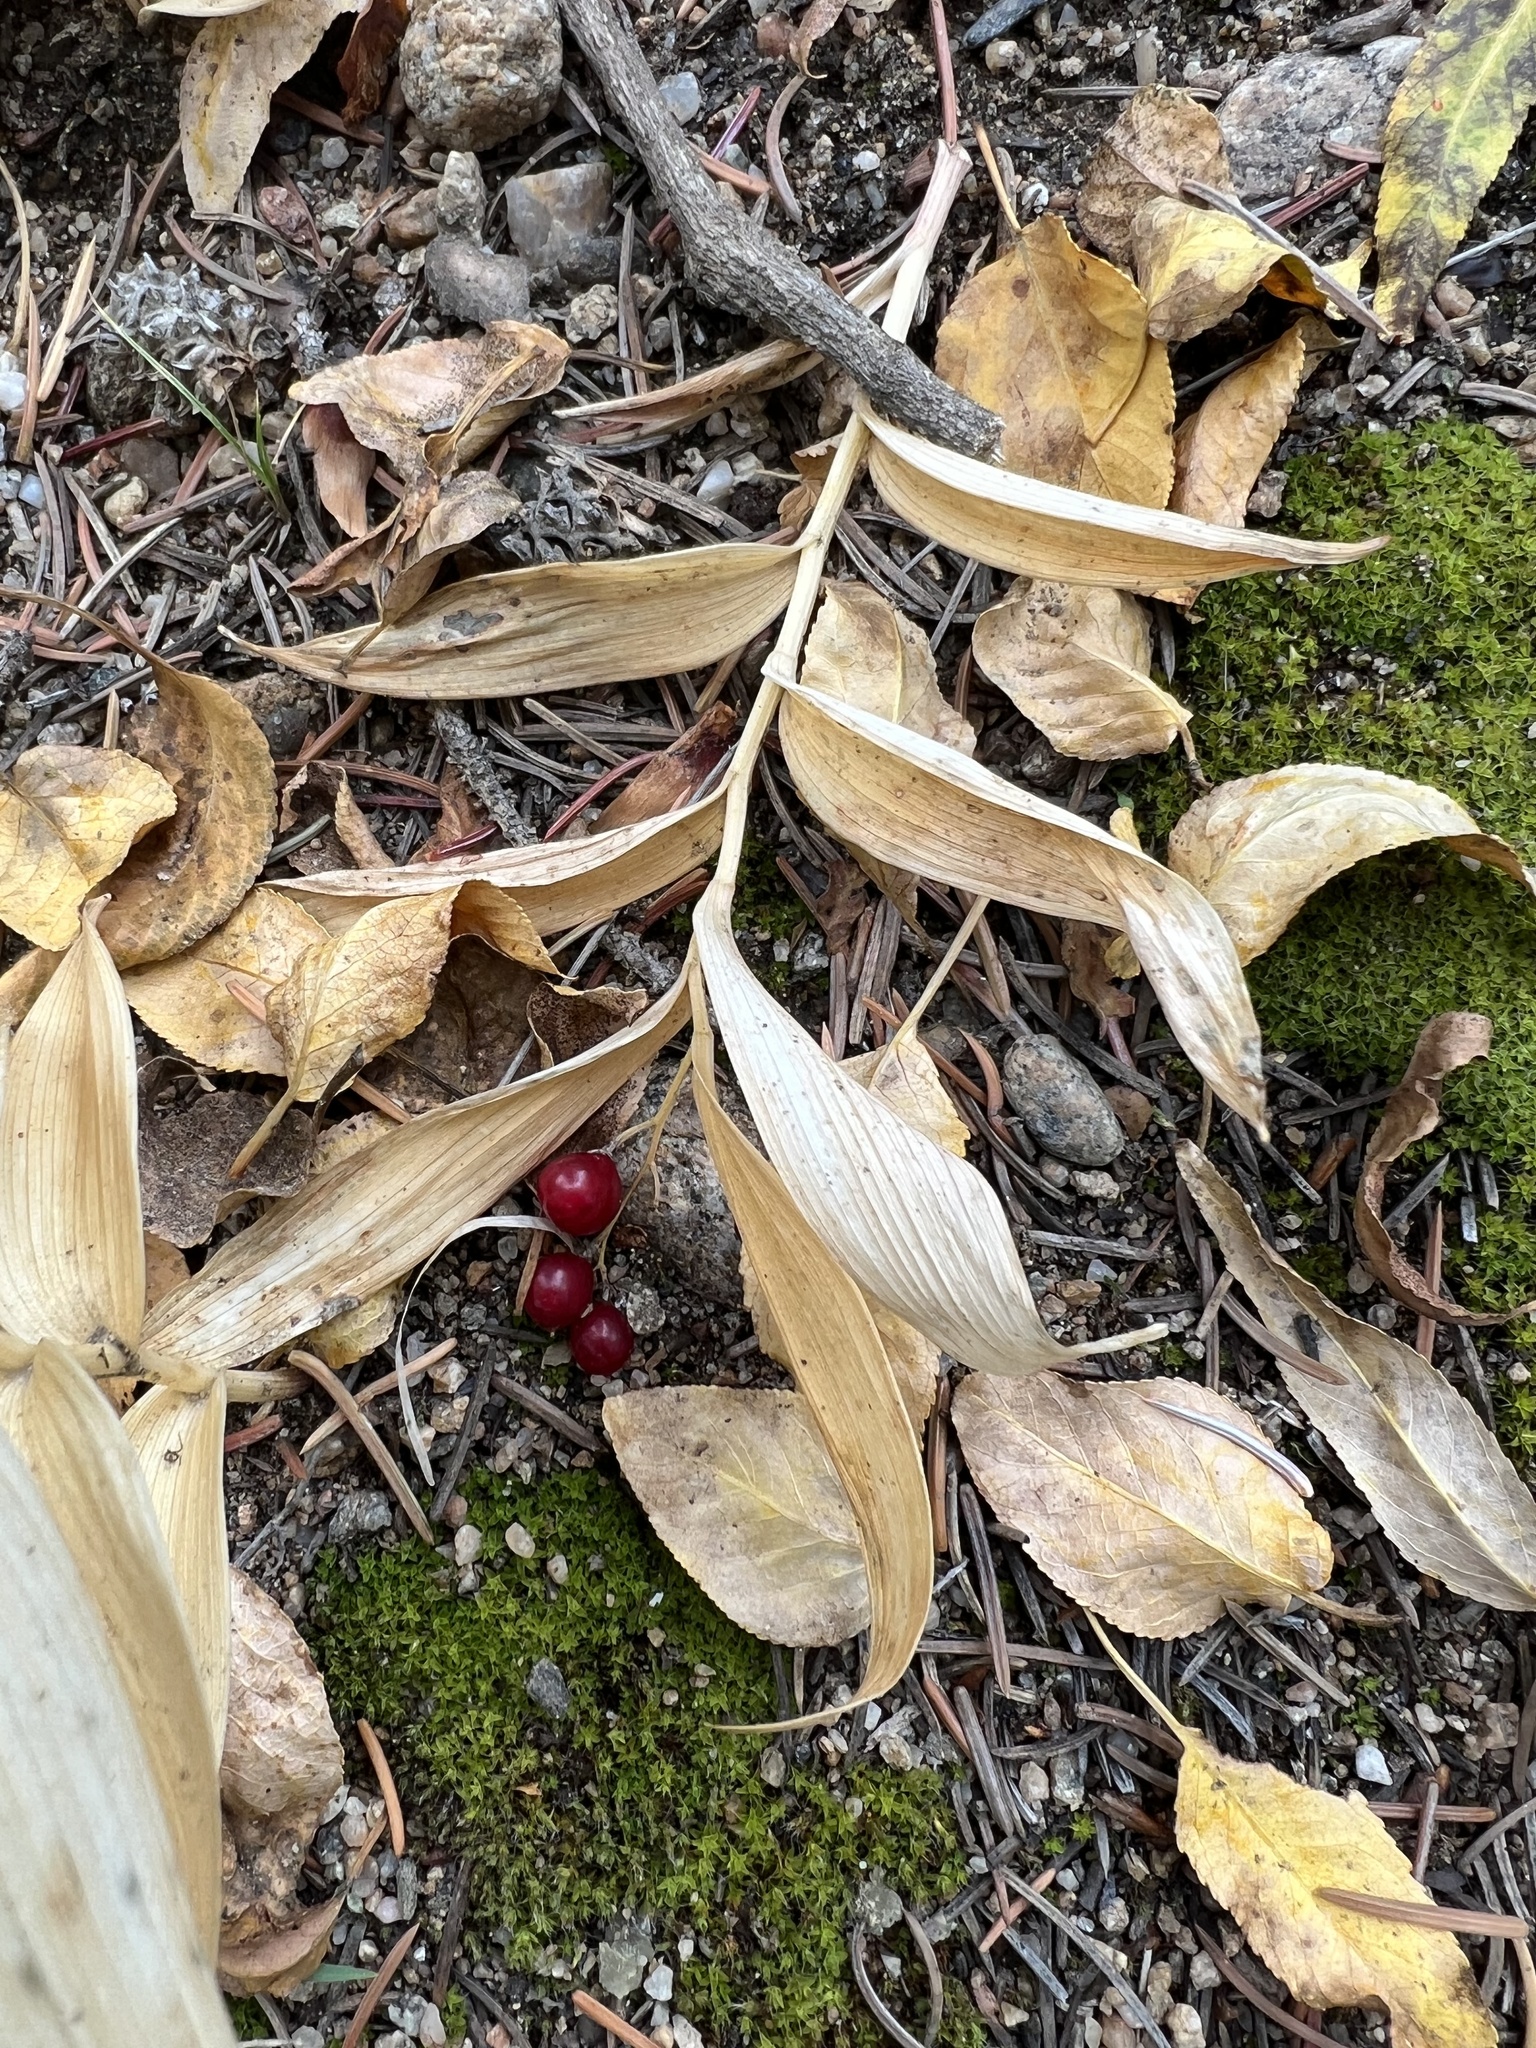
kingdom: Plantae
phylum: Tracheophyta
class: Liliopsida
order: Asparagales
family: Asparagaceae
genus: Maianthemum
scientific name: Maianthemum stellatum
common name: Little false solomon's seal
